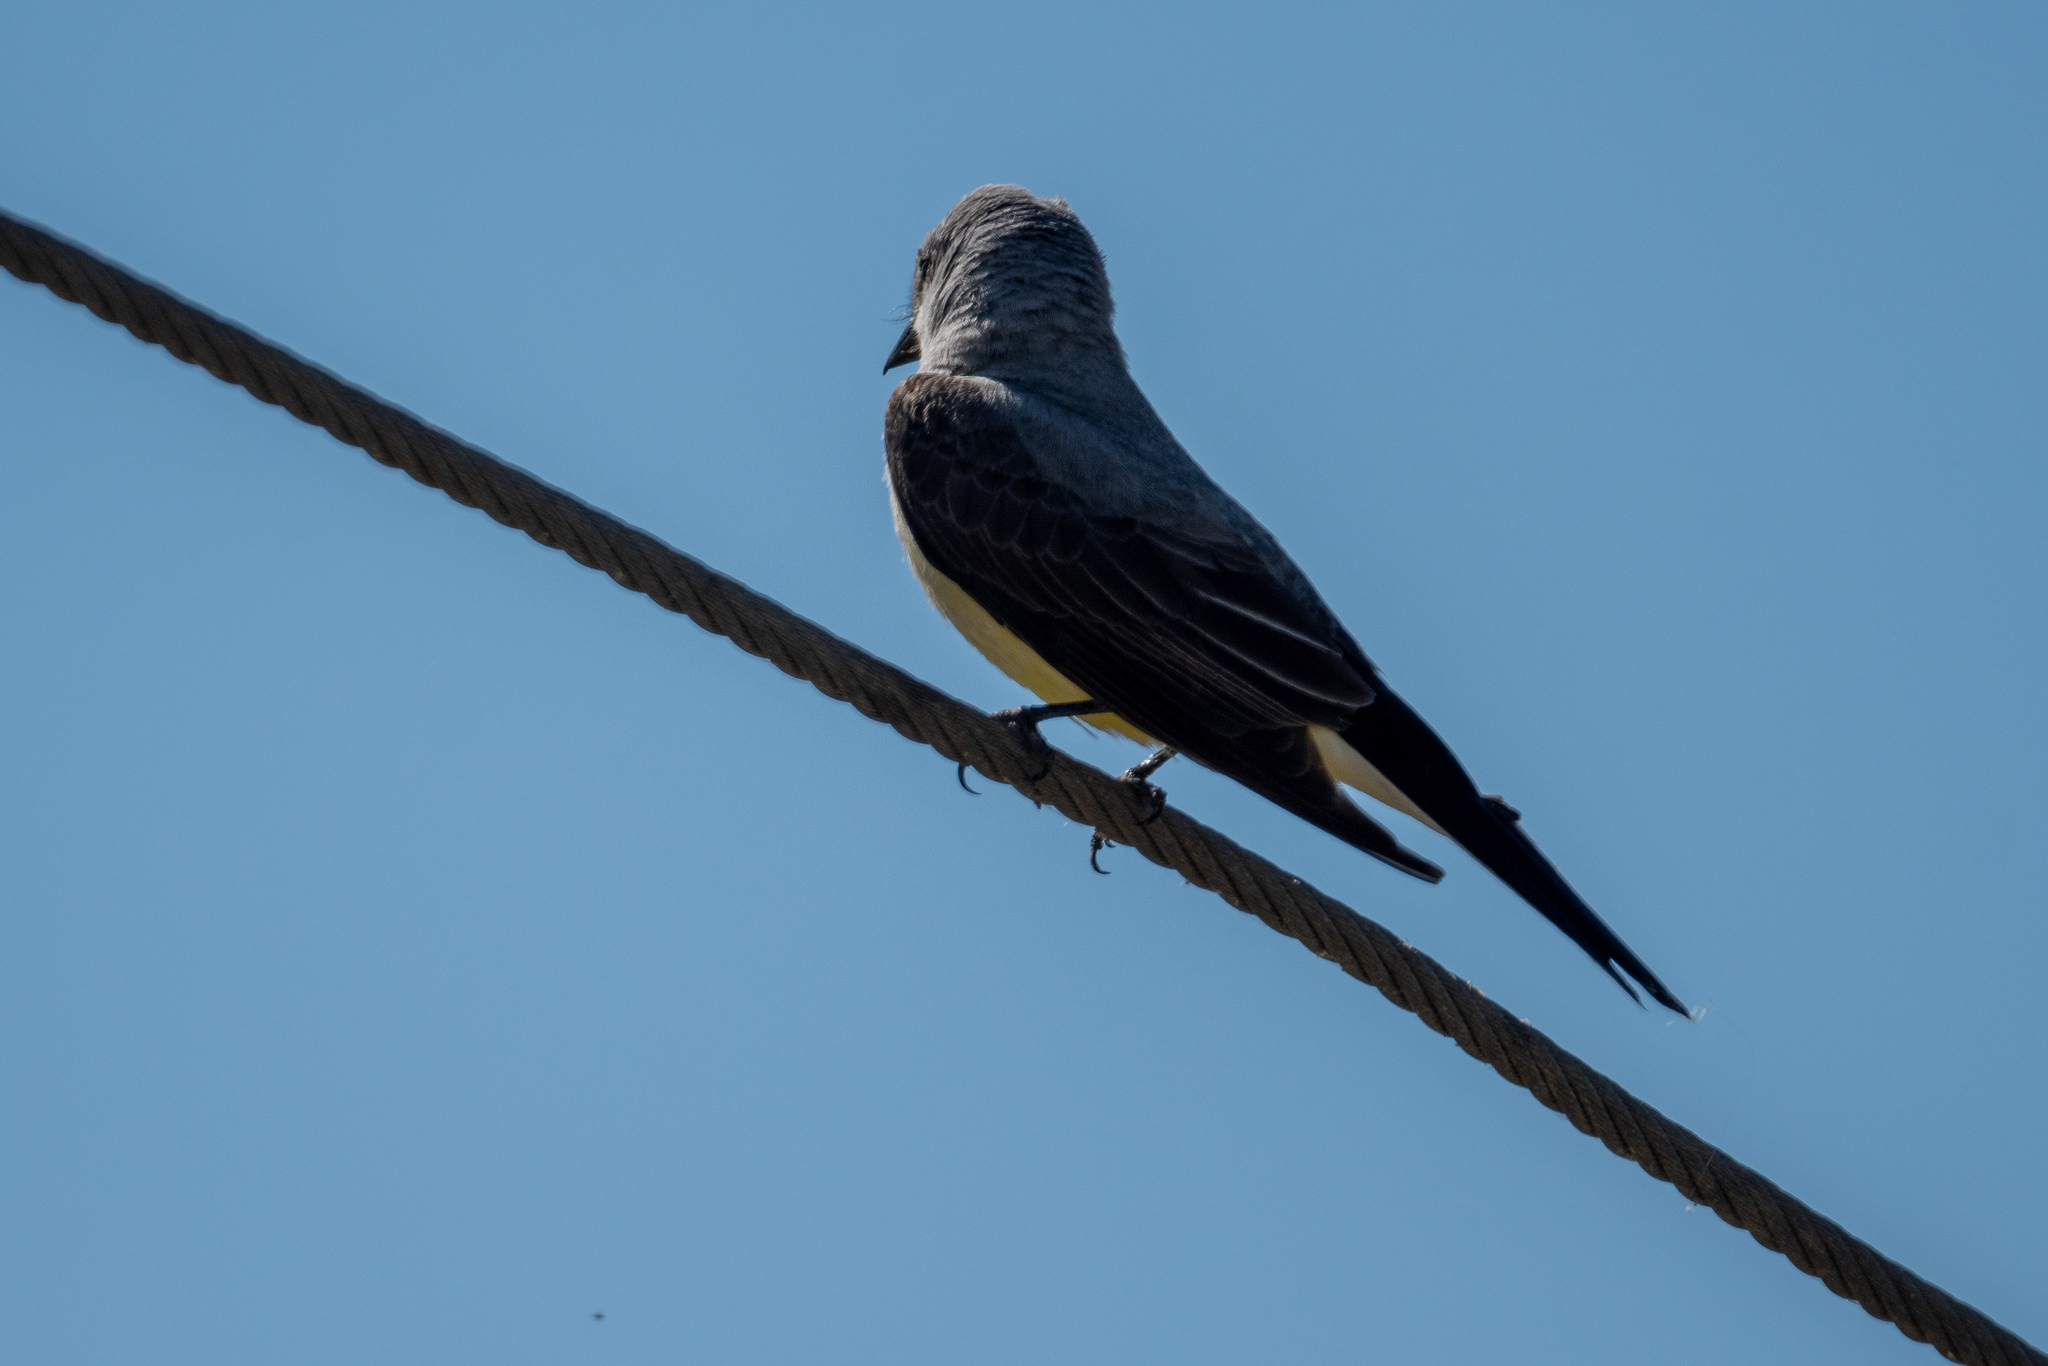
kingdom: Animalia
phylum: Chordata
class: Aves
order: Passeriformes
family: Tyrannidae
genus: Tyrannus
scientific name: Tyrannus verticalis
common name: Western kingbird
